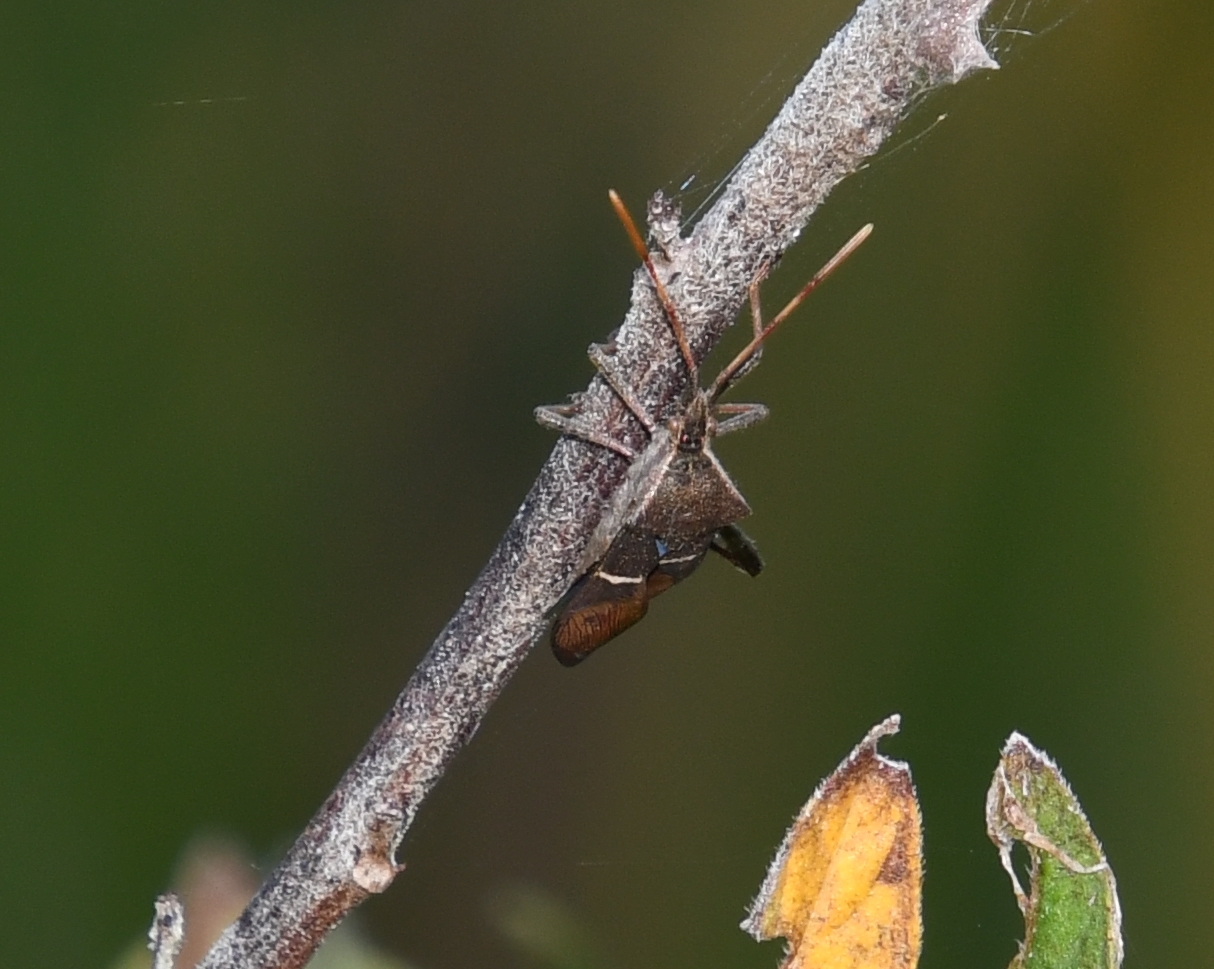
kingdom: Animalia
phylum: Arthropoda
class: Insecta
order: Hemiptera
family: Coreidae
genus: Leptoglossus
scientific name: Leptoglossus phyllopus
